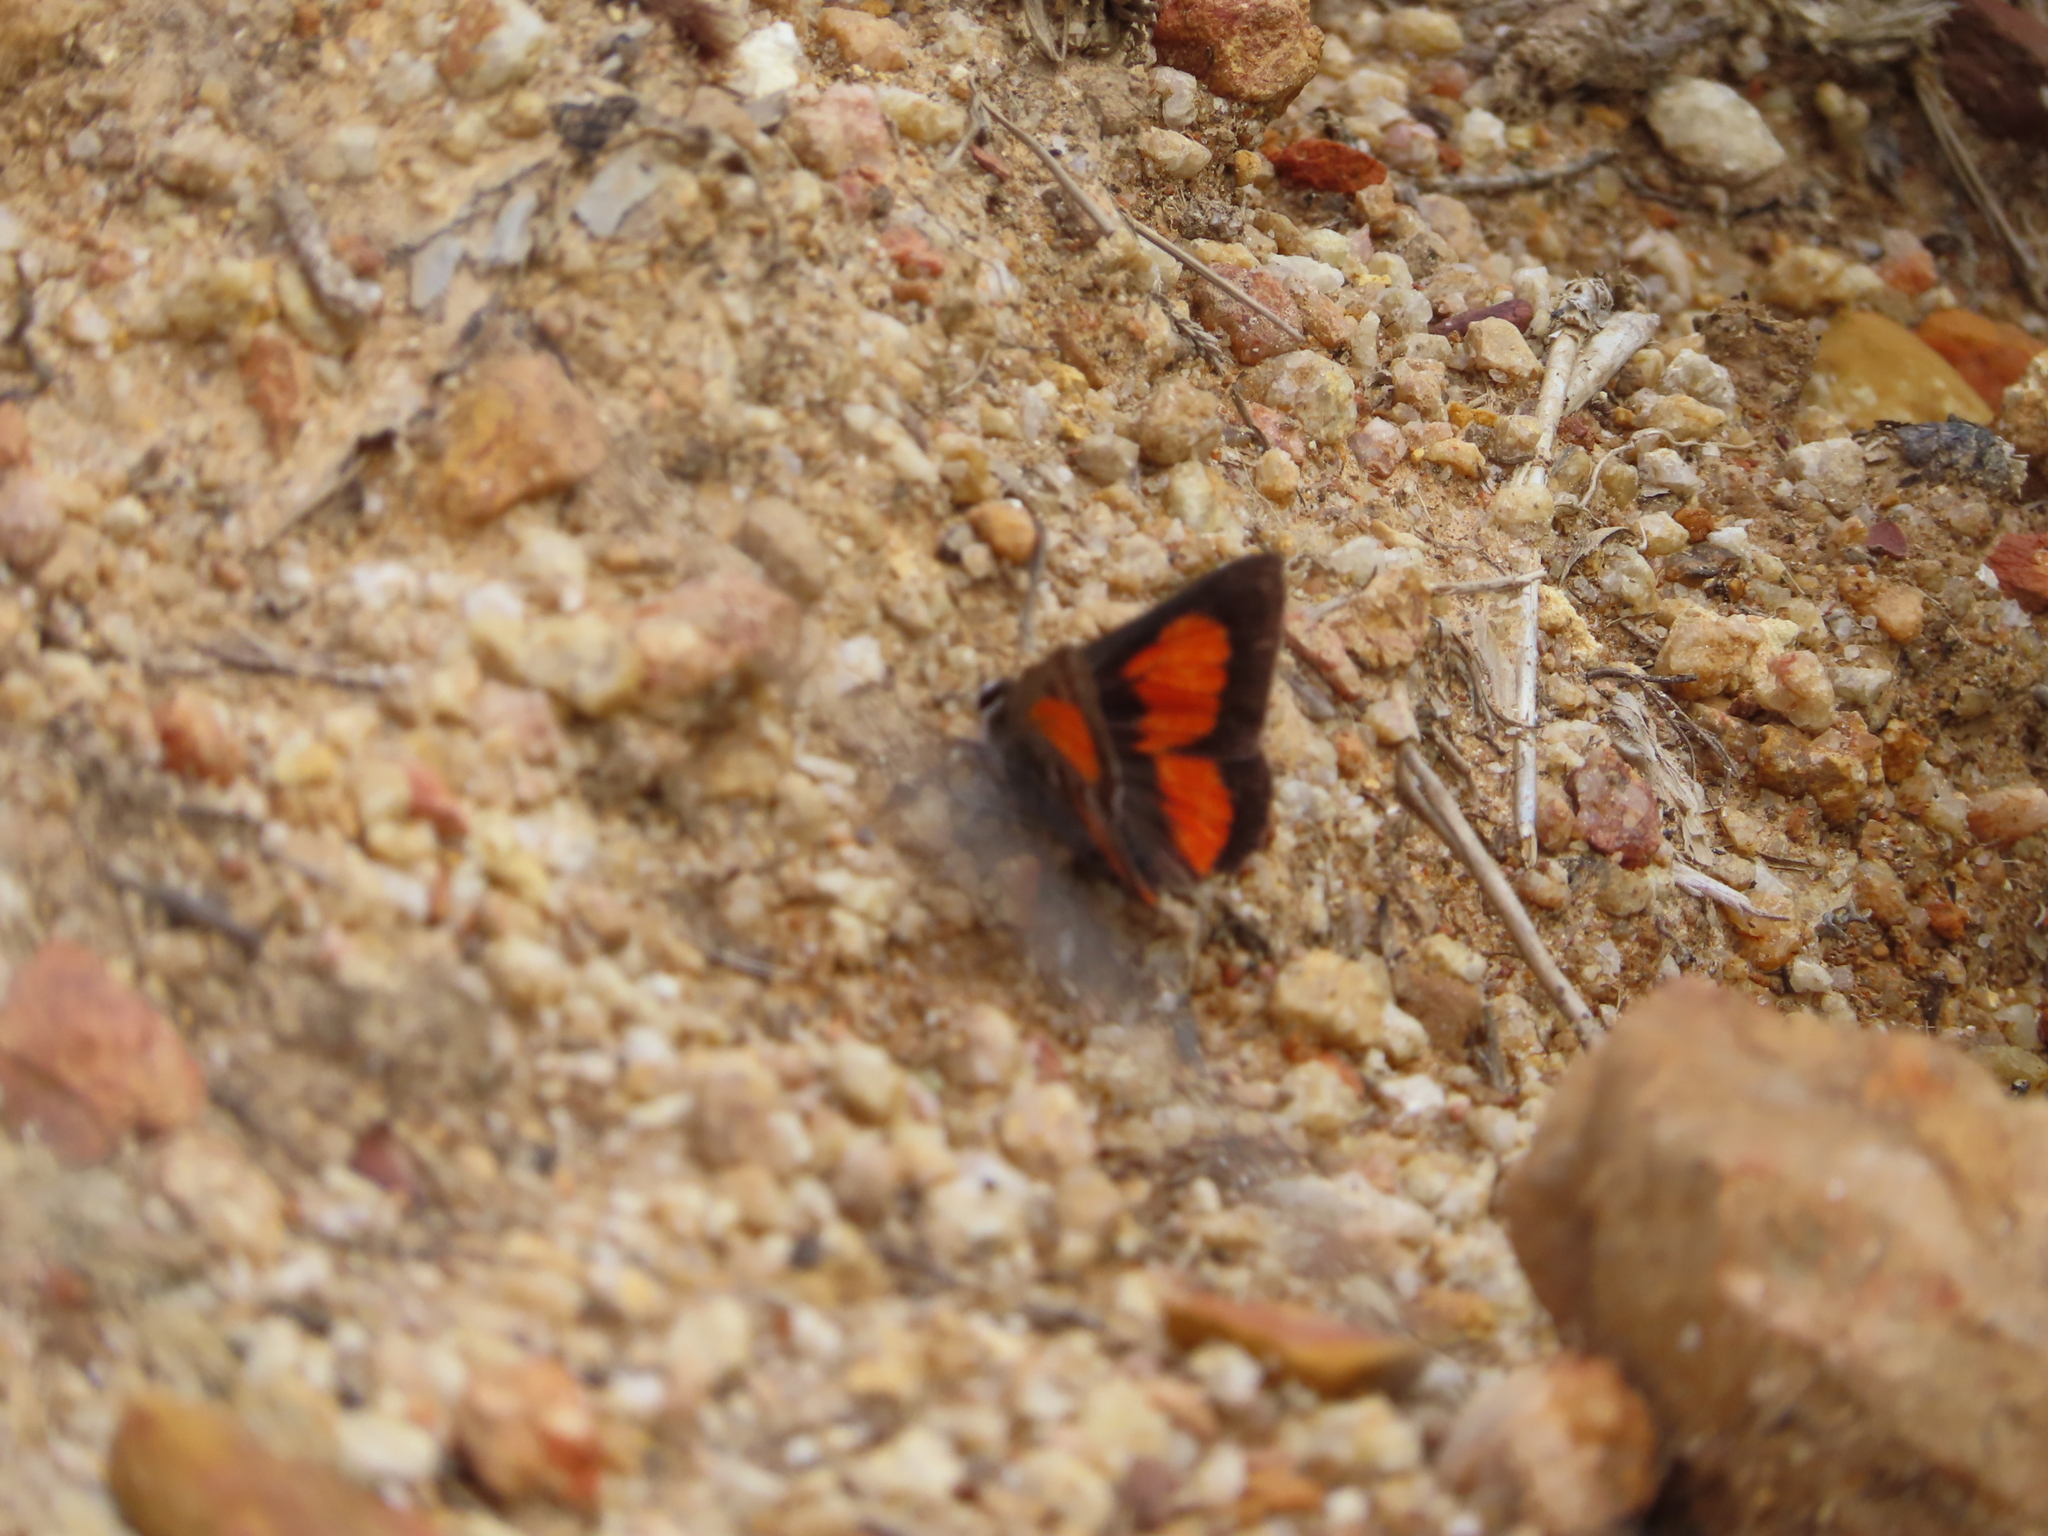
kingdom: Animalia
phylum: Arthropoda
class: Insecta
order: Lepidoptera
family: Lycaenidae
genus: Capys
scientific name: Capys alpheus
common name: Orange-banded protea butterfly
